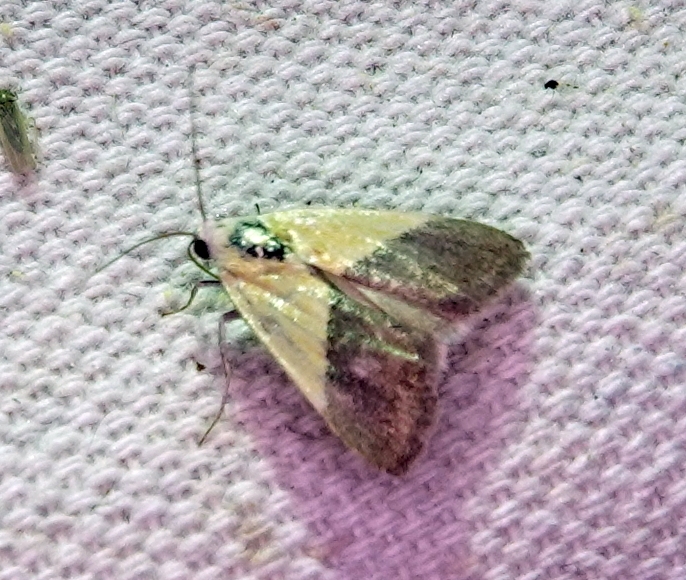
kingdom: Animalia
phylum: Arthropoda
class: Insecta
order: Lepidoptera
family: Noctuidae
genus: Acontia
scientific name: Acontia semiflava
